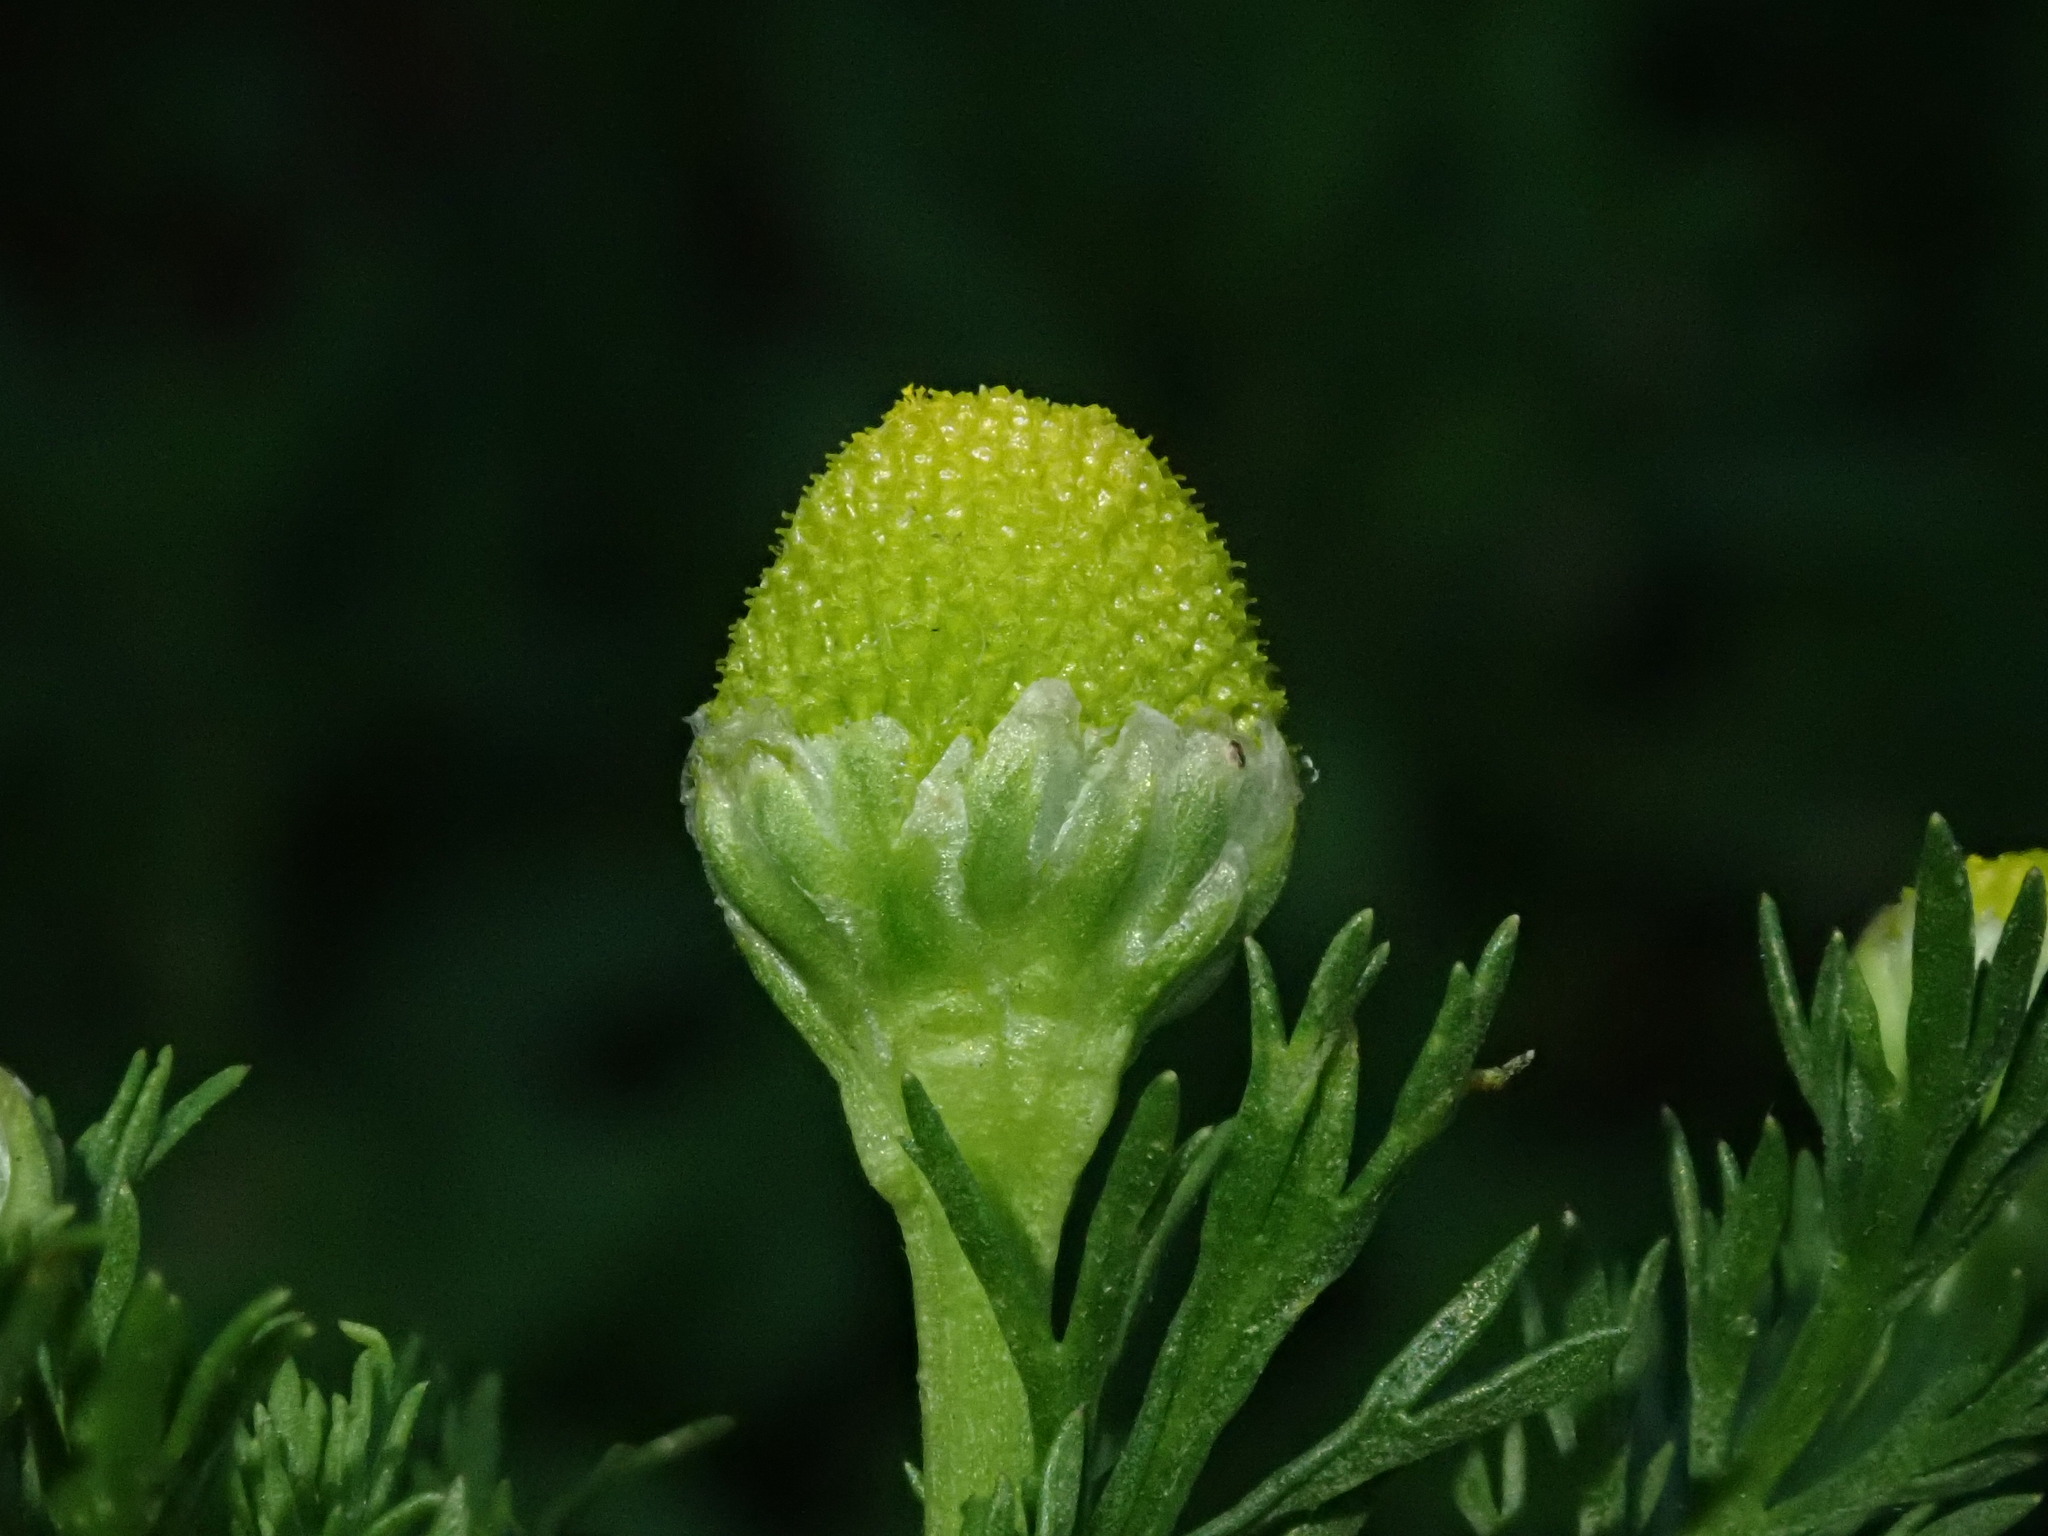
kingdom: Plantae
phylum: Tracheophyta
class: Magnoliopsida
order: Asterales
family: Asteraceae
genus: Matricaria
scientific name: Matricaria discoidea
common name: Disc mayweed
